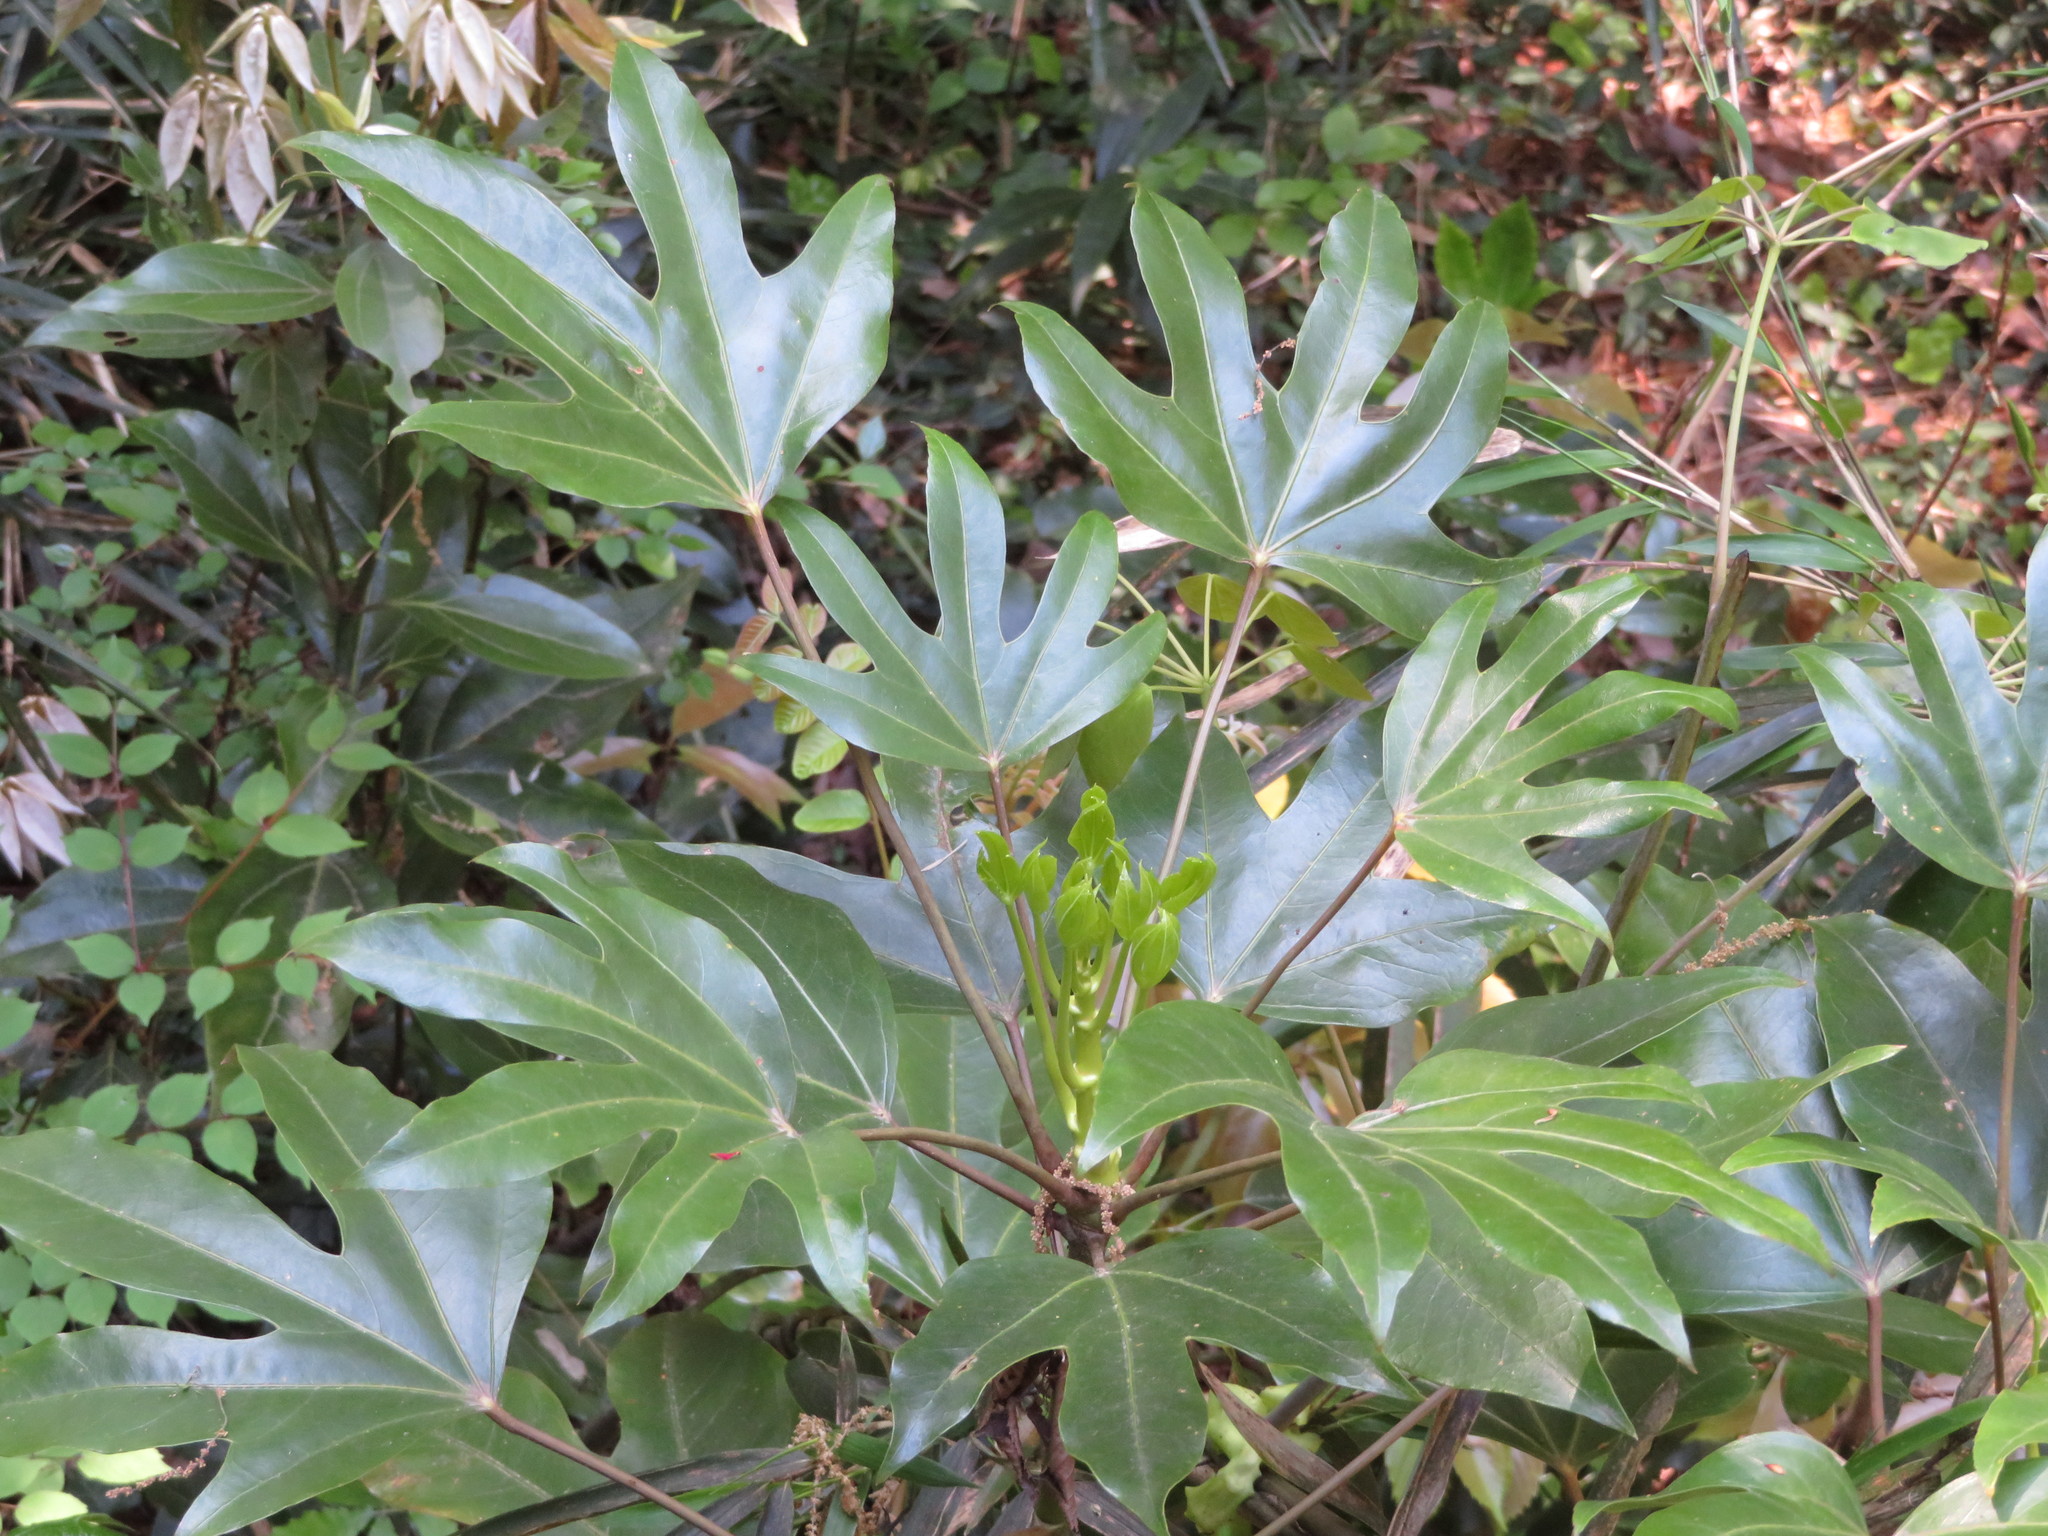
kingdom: Plantae
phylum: Tracheophyta
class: Magnoliopsida
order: Apiales
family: Araliaceae
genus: Dendropanax
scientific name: Dendropanax trifidus
